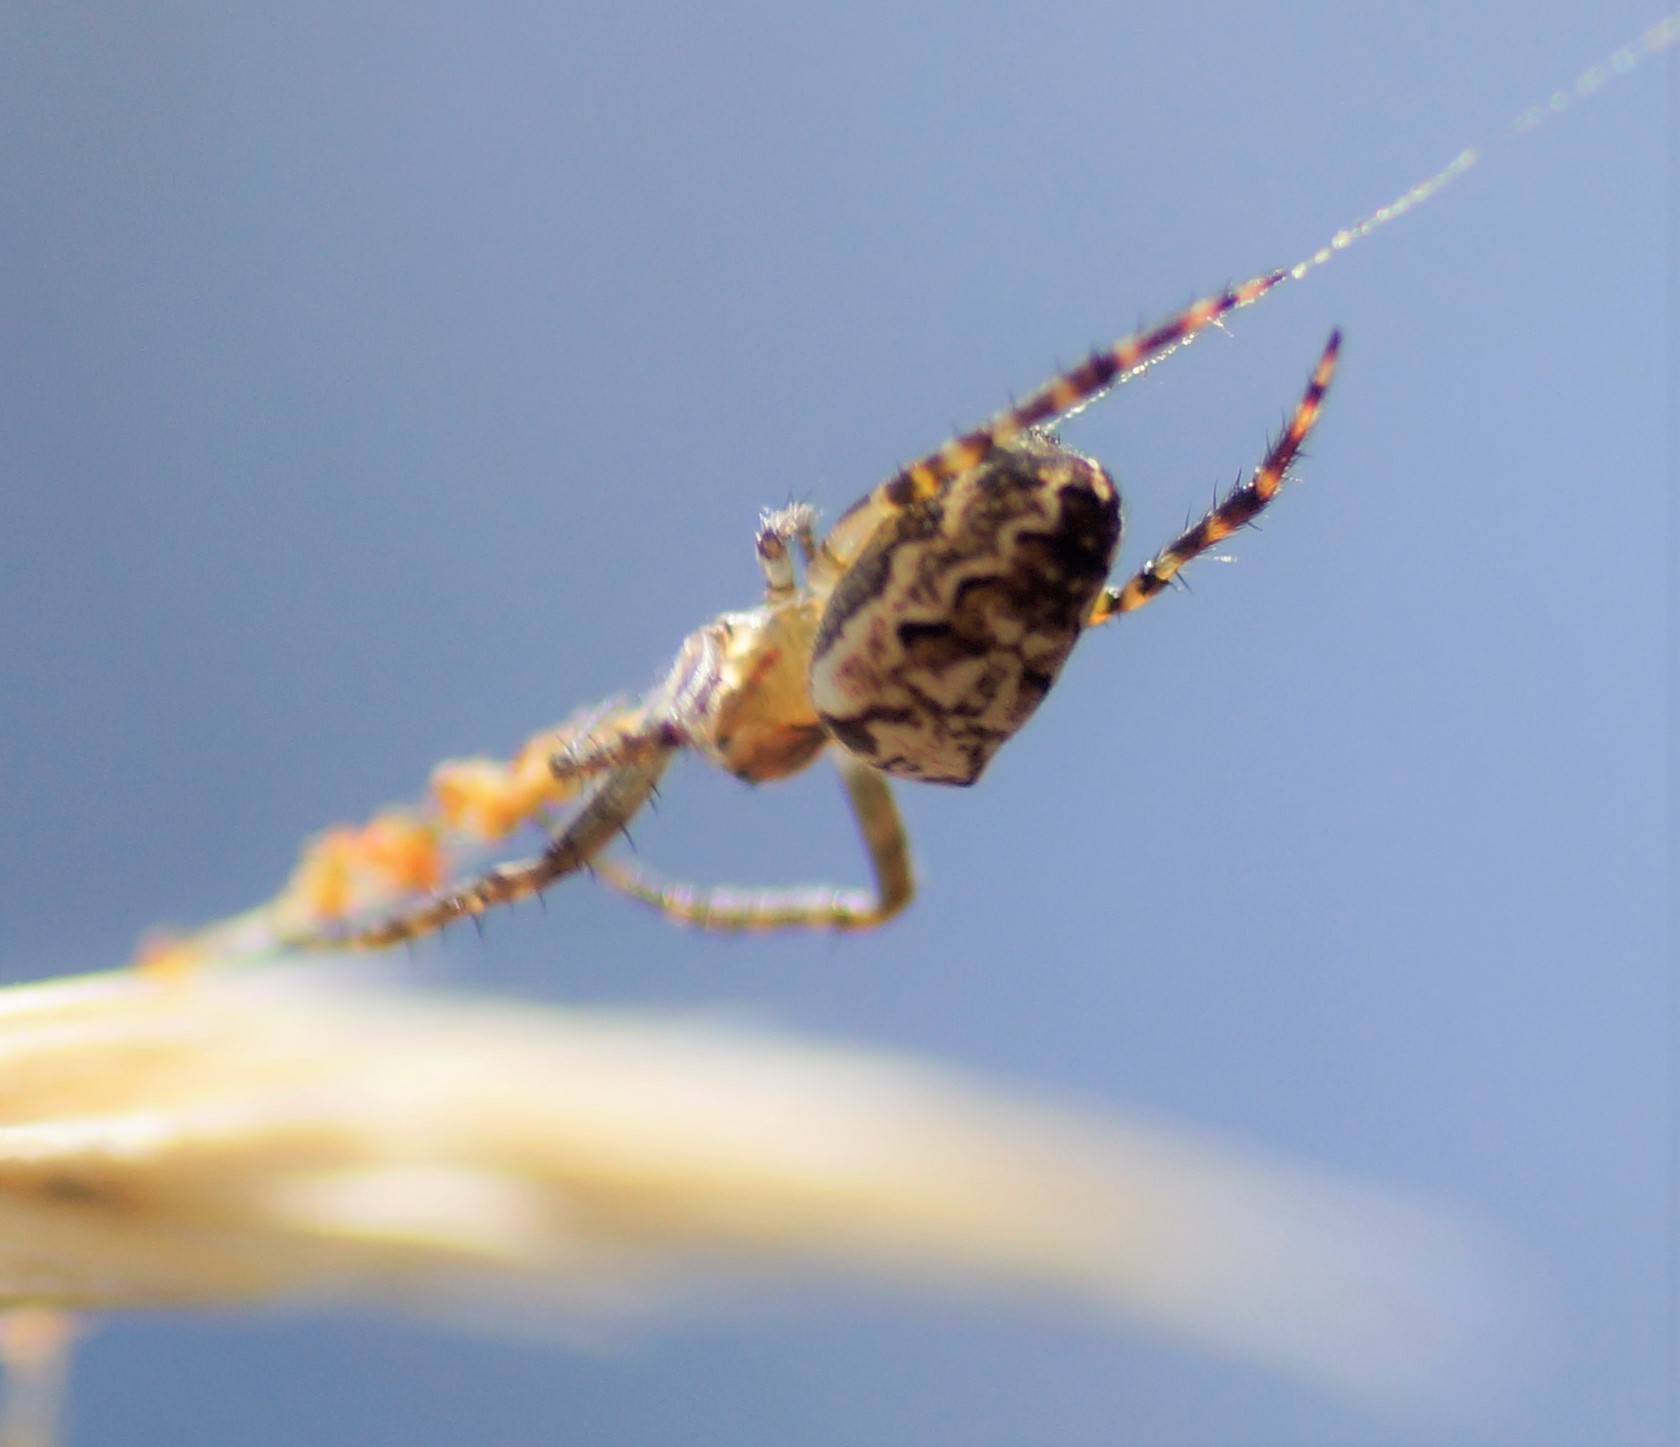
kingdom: Animalia
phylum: Arthropoda
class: Arachnida
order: Araneae
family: Araneidae
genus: Plebs
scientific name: Plebs eburnus
